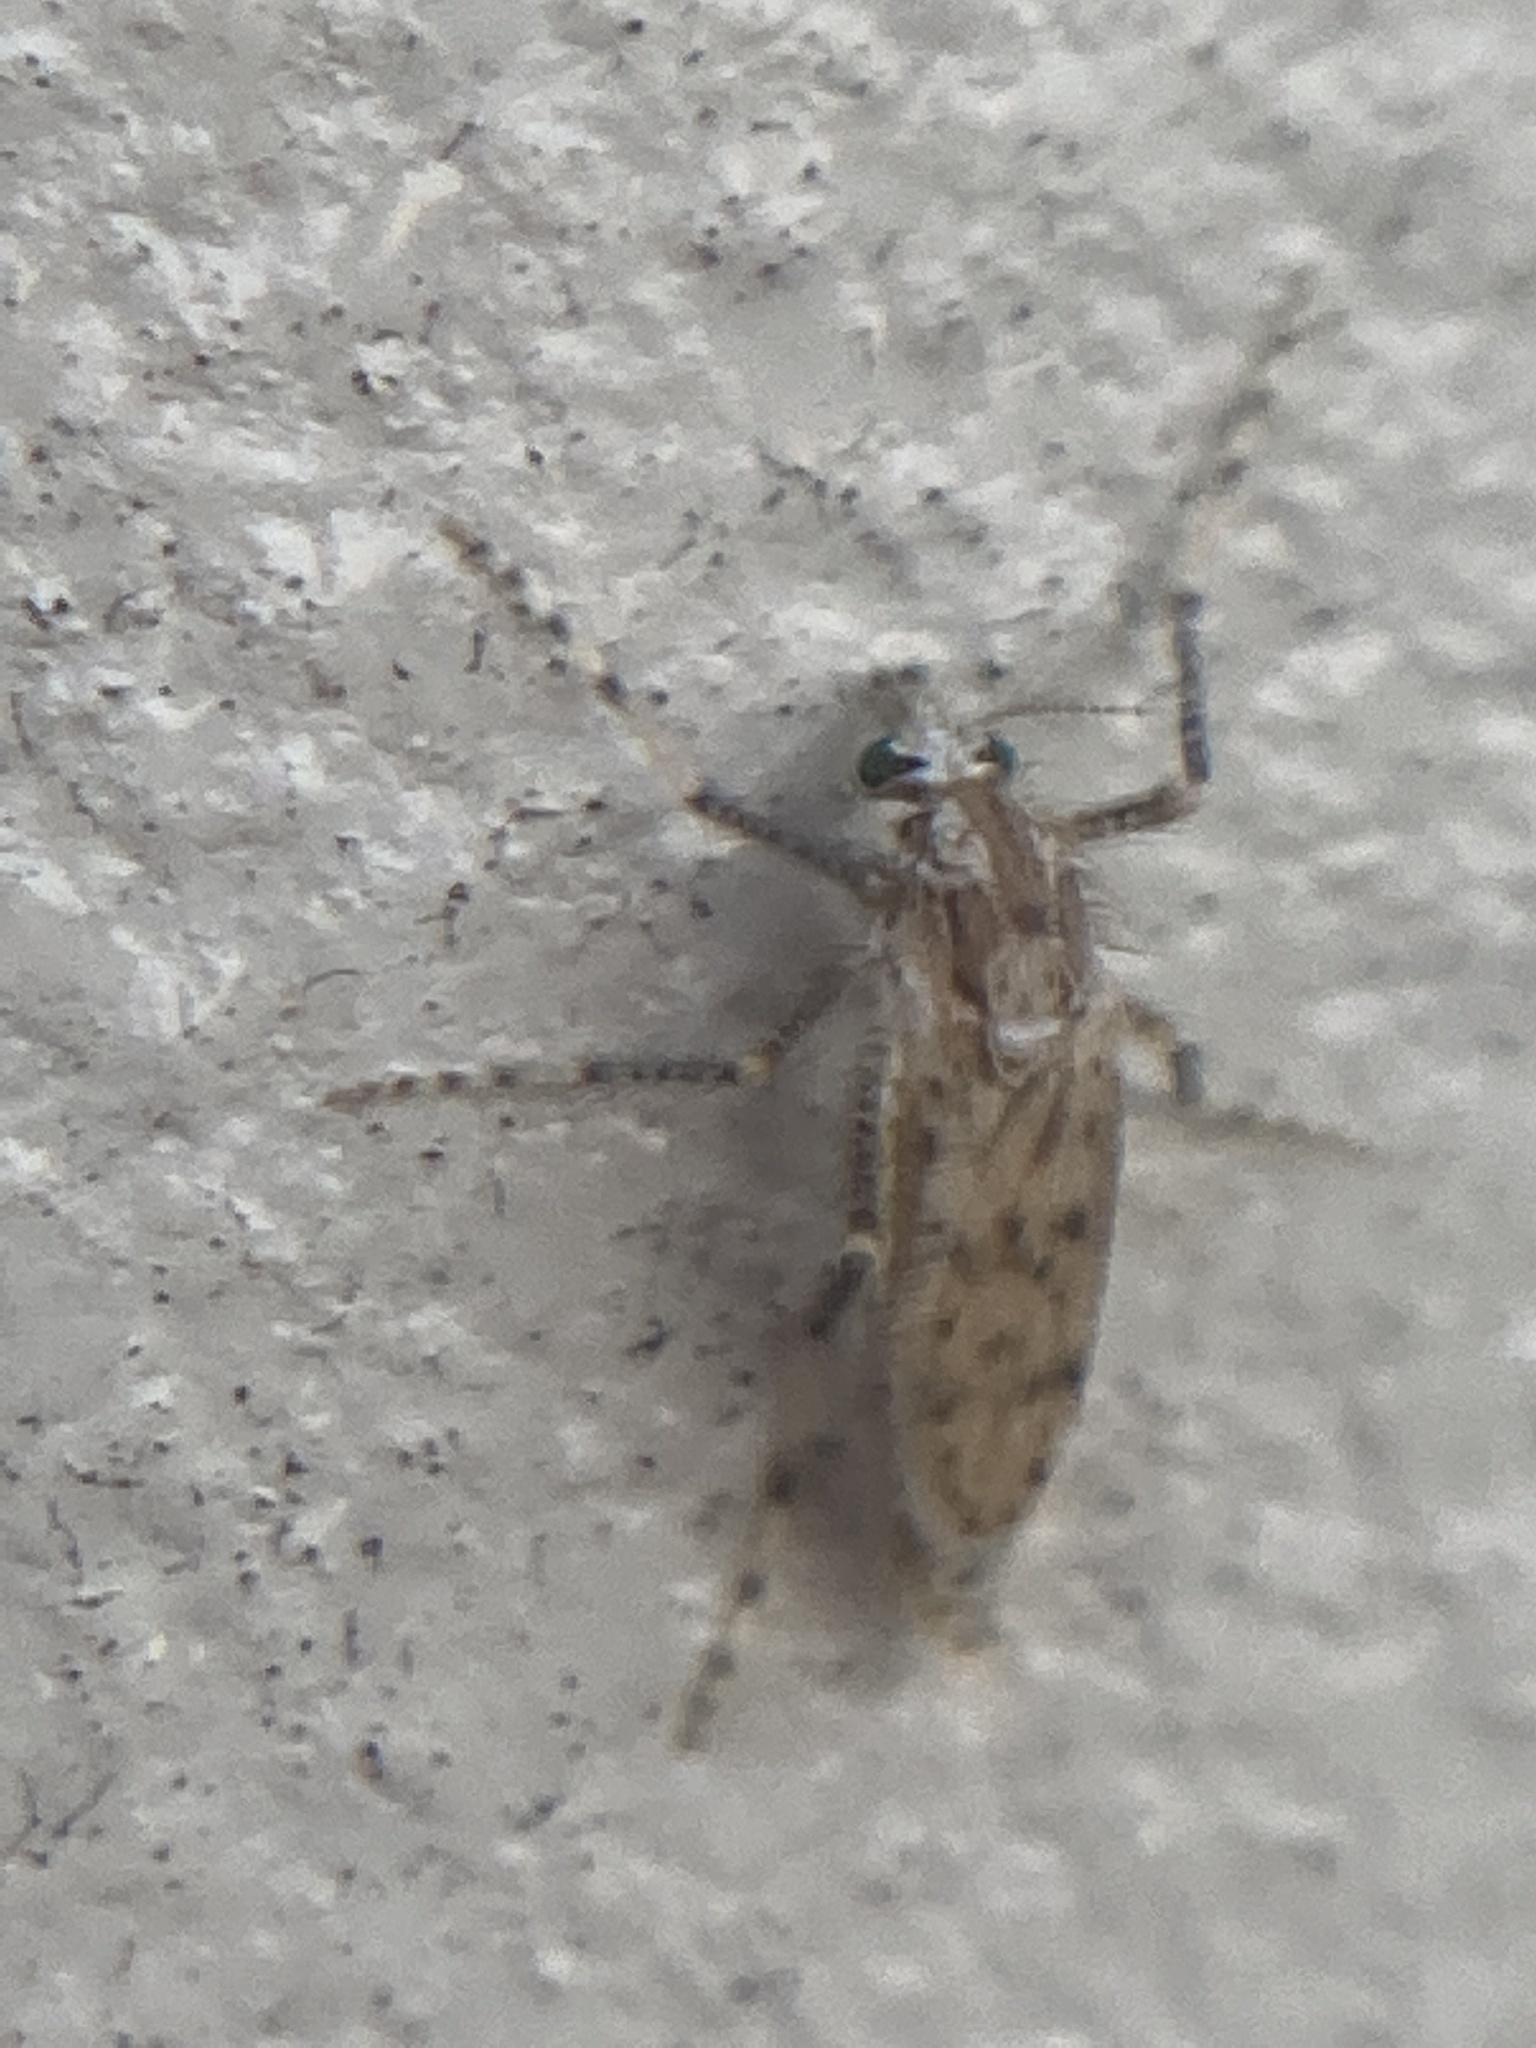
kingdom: Animalia
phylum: Arthropoda
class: Insecta
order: Diptera
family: Chaoboridae
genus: Chaoborus
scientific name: Chaoborus punctipennis
